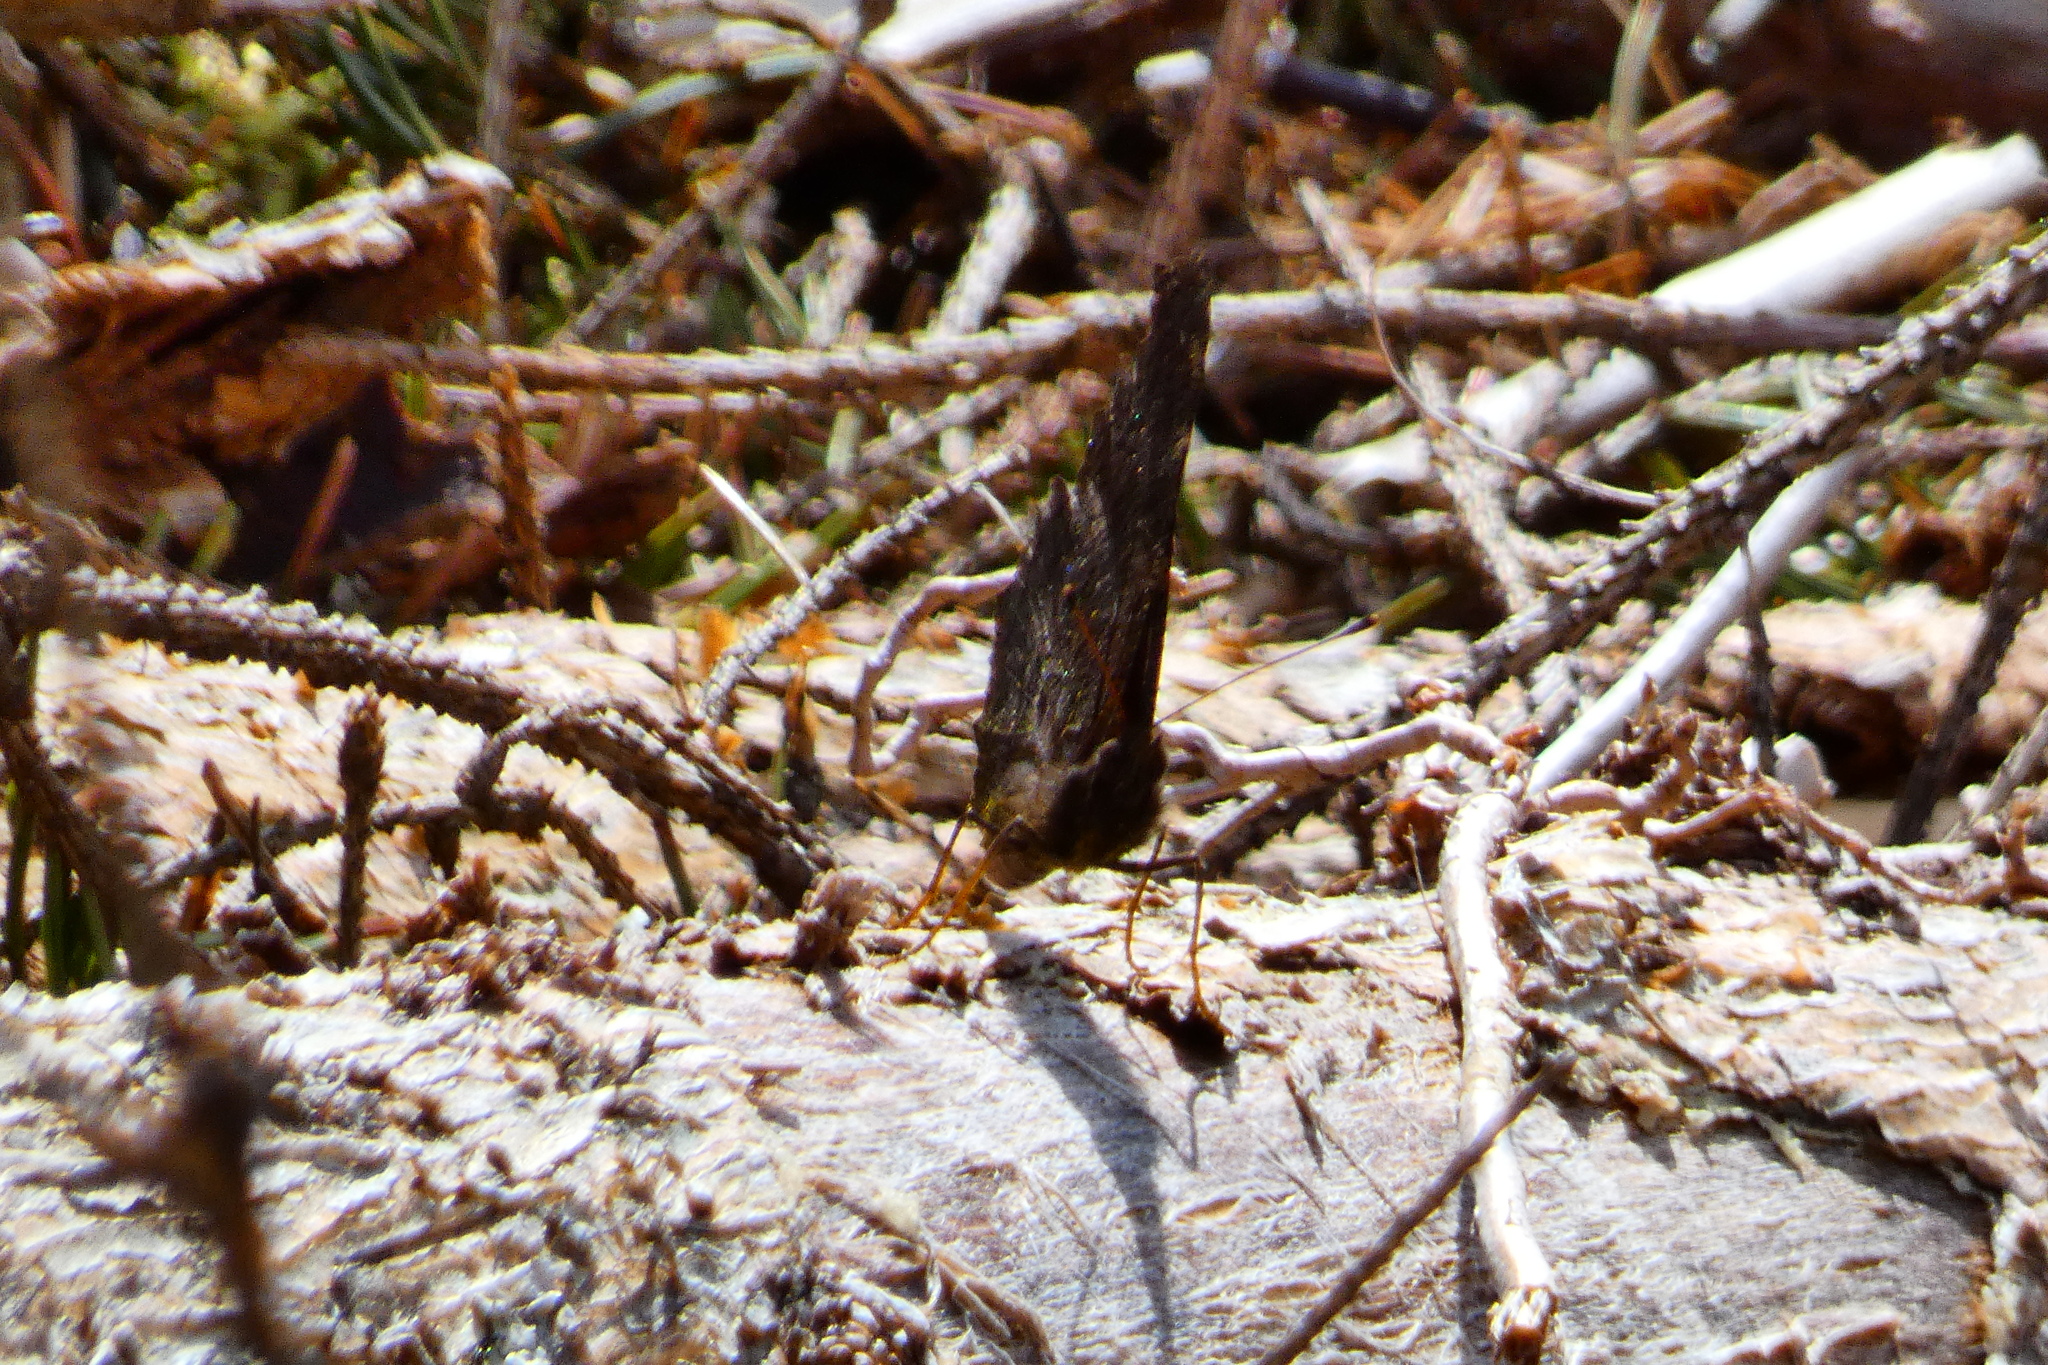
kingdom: Animalia
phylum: Arthropoda
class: Insecta
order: Lepidoptera
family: Nymphalidae
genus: Aglais
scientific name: Aglais io
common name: Peacock
